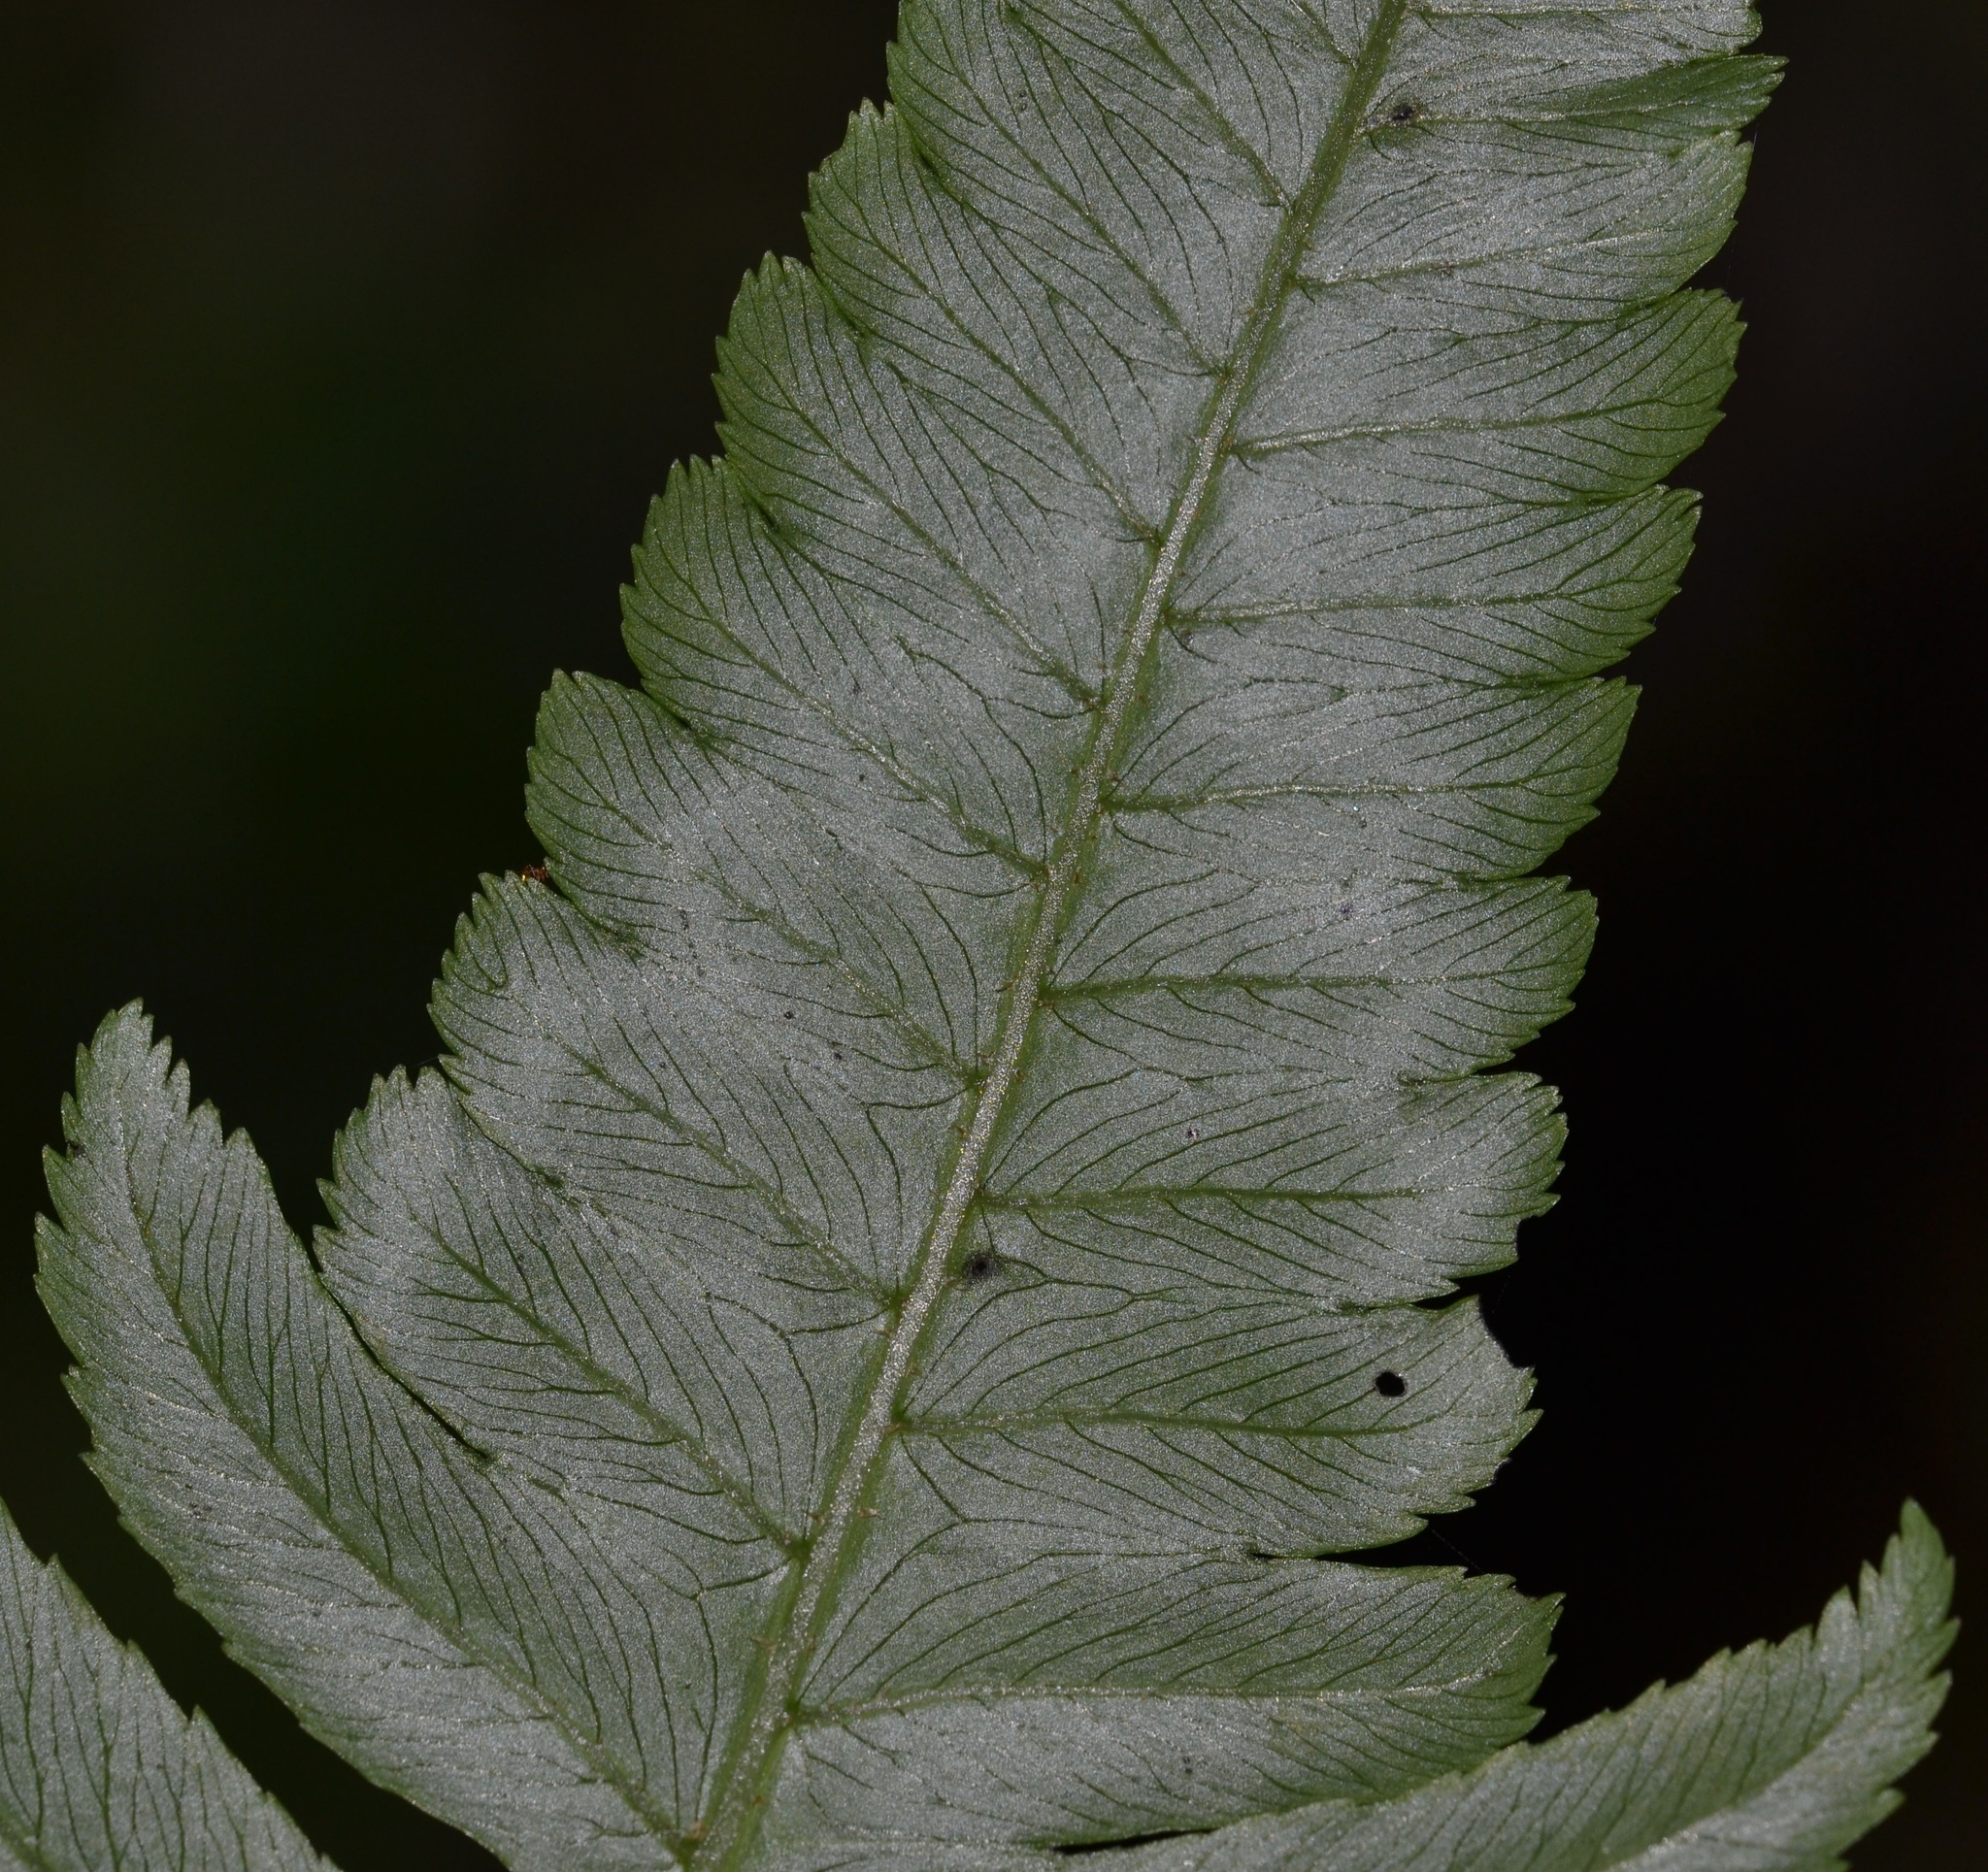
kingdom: Plantae
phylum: Tracheophyta
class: Polypodiopsida
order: Polypodiales
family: Athyriaceae
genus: Diplazium
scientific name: Diplazium esculentum
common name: Vegetable fern
